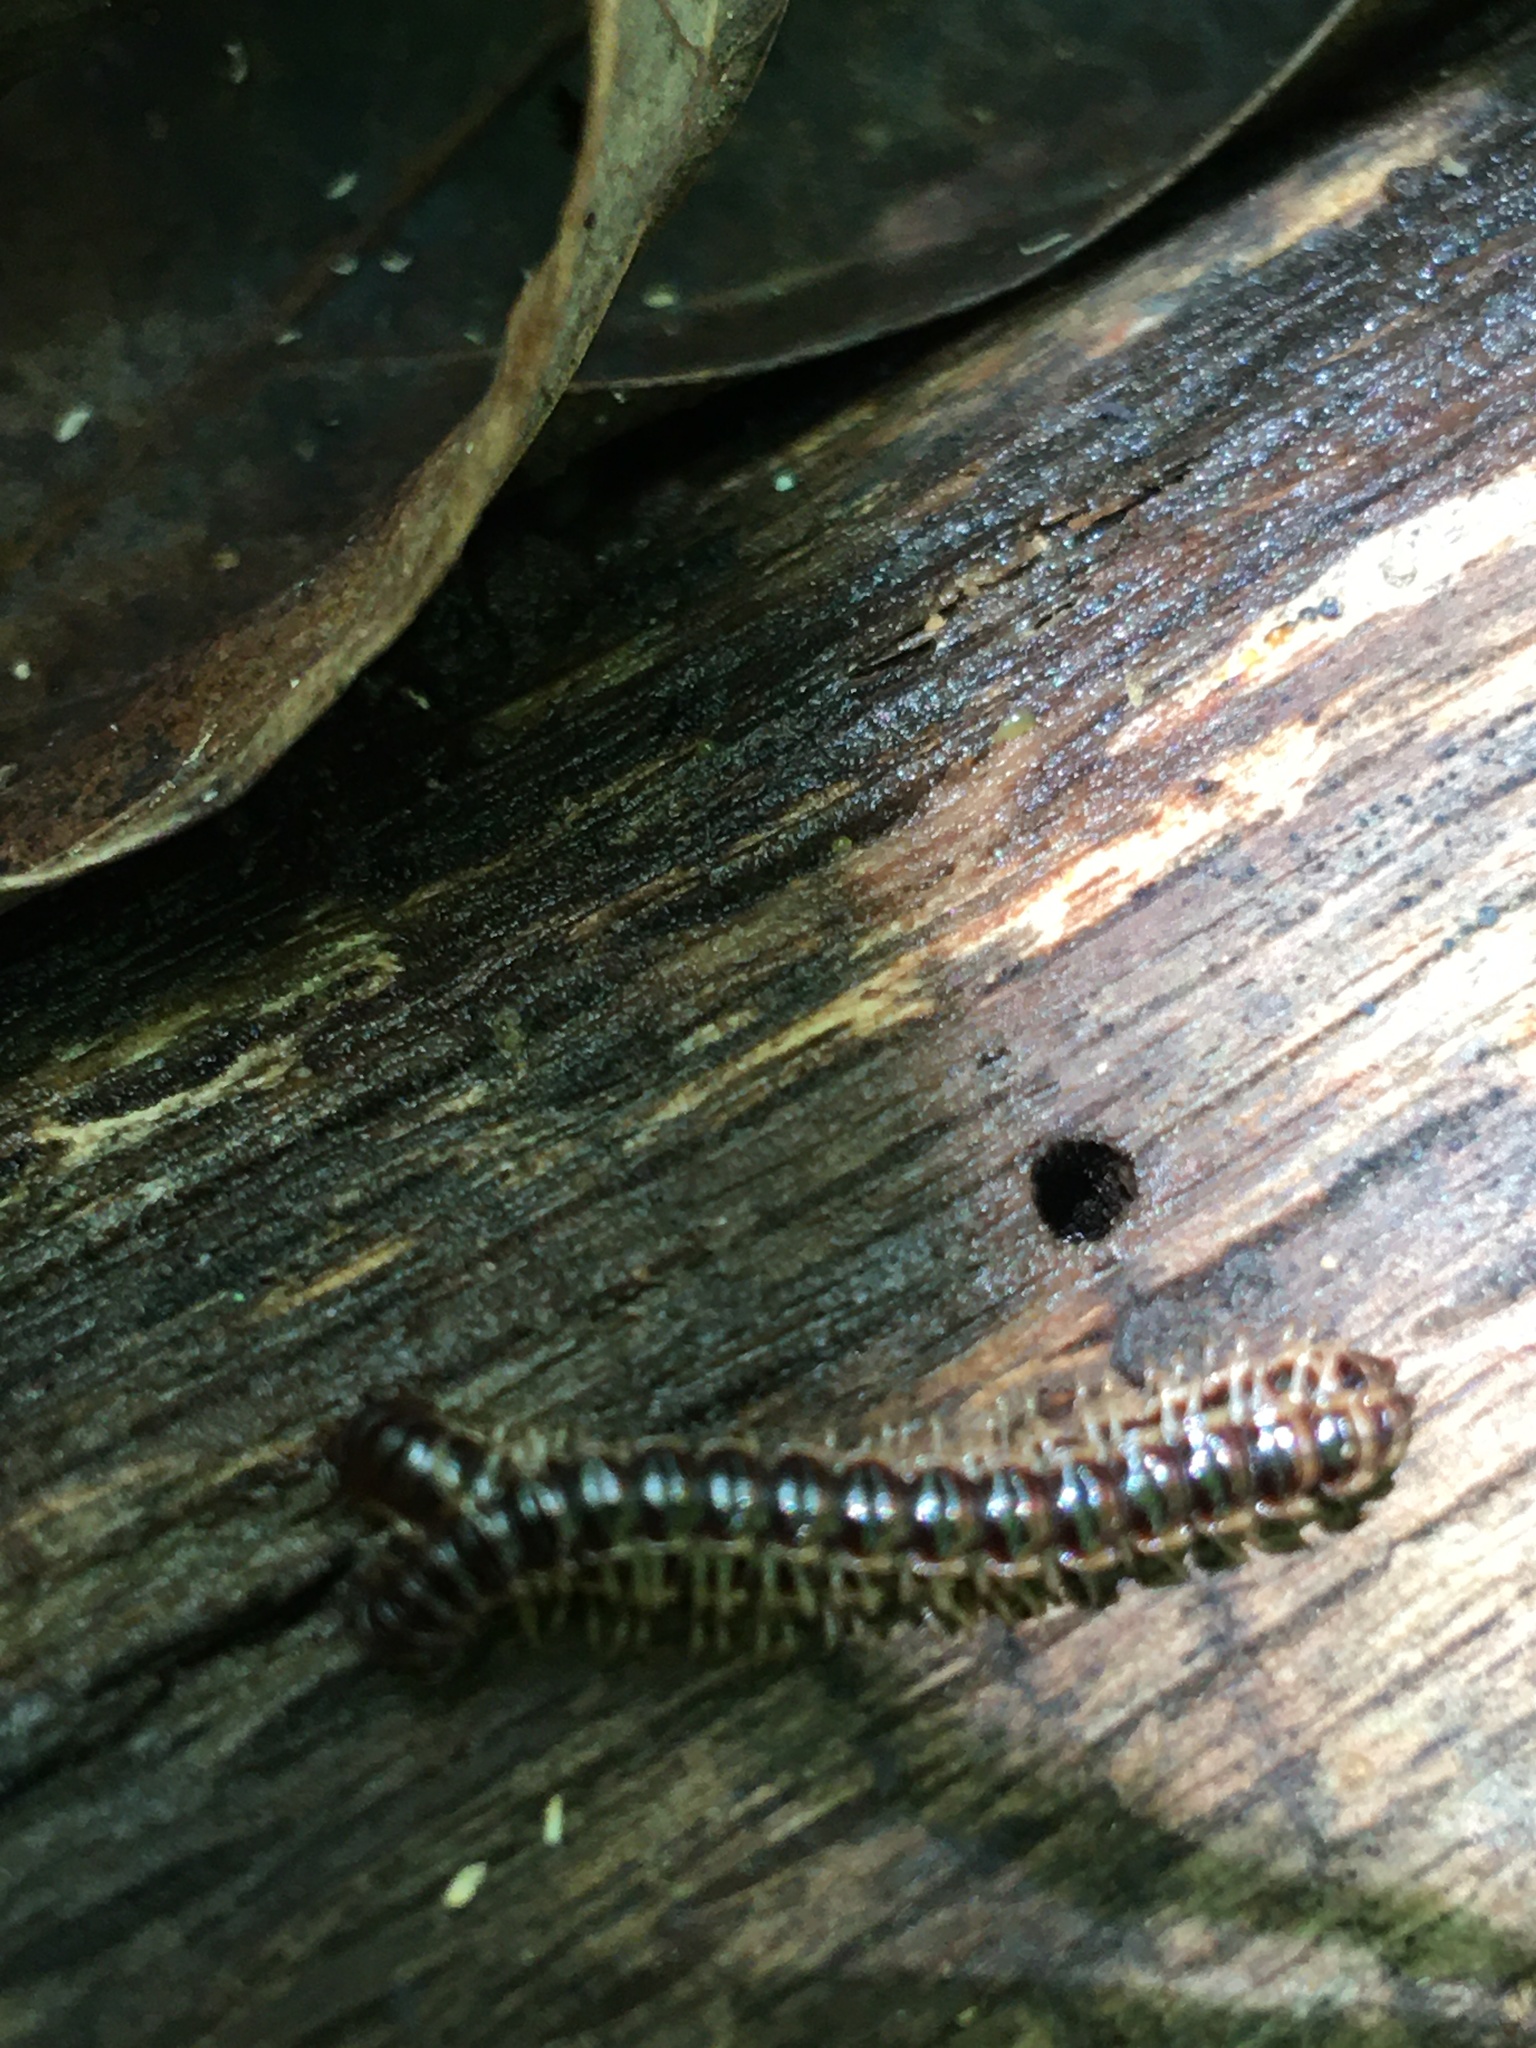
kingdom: Animalia
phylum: Arthropoda
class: Diplopoda
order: Polydesmida
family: Paradoxosomatidae
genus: Oxidus
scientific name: Oxidus gracilis
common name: Greenhouse millipede
